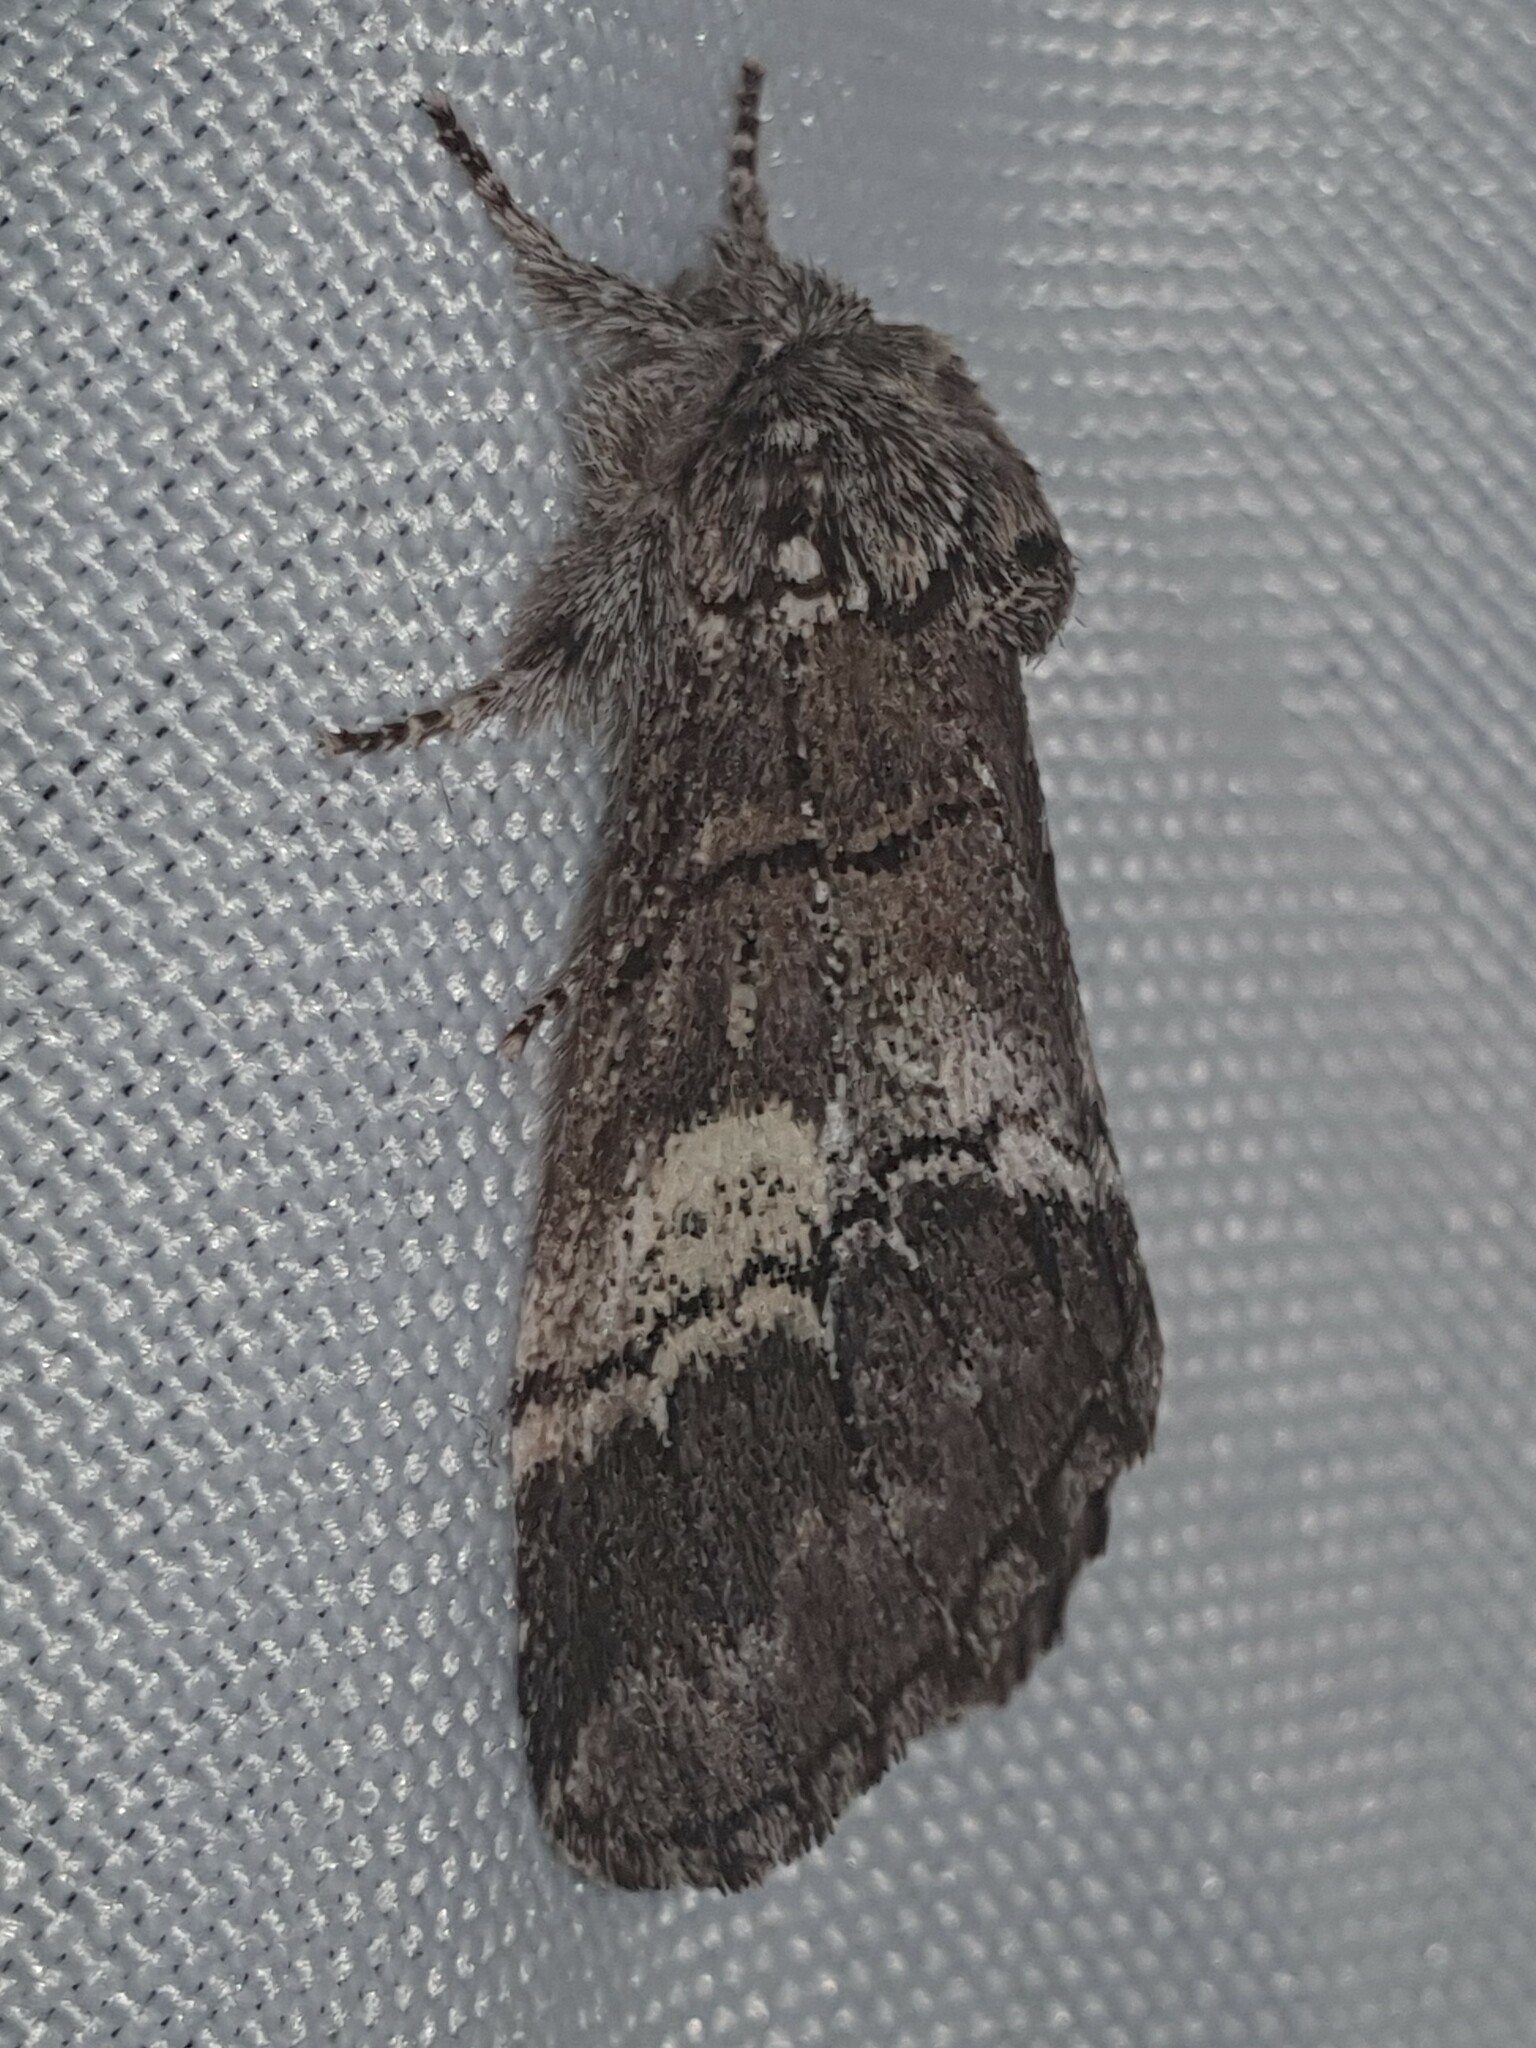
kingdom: Animalia
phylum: Arthropoda
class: Insecta
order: Lepidoptera
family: Notodontidae
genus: Drymonia
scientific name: Drymonia querna
